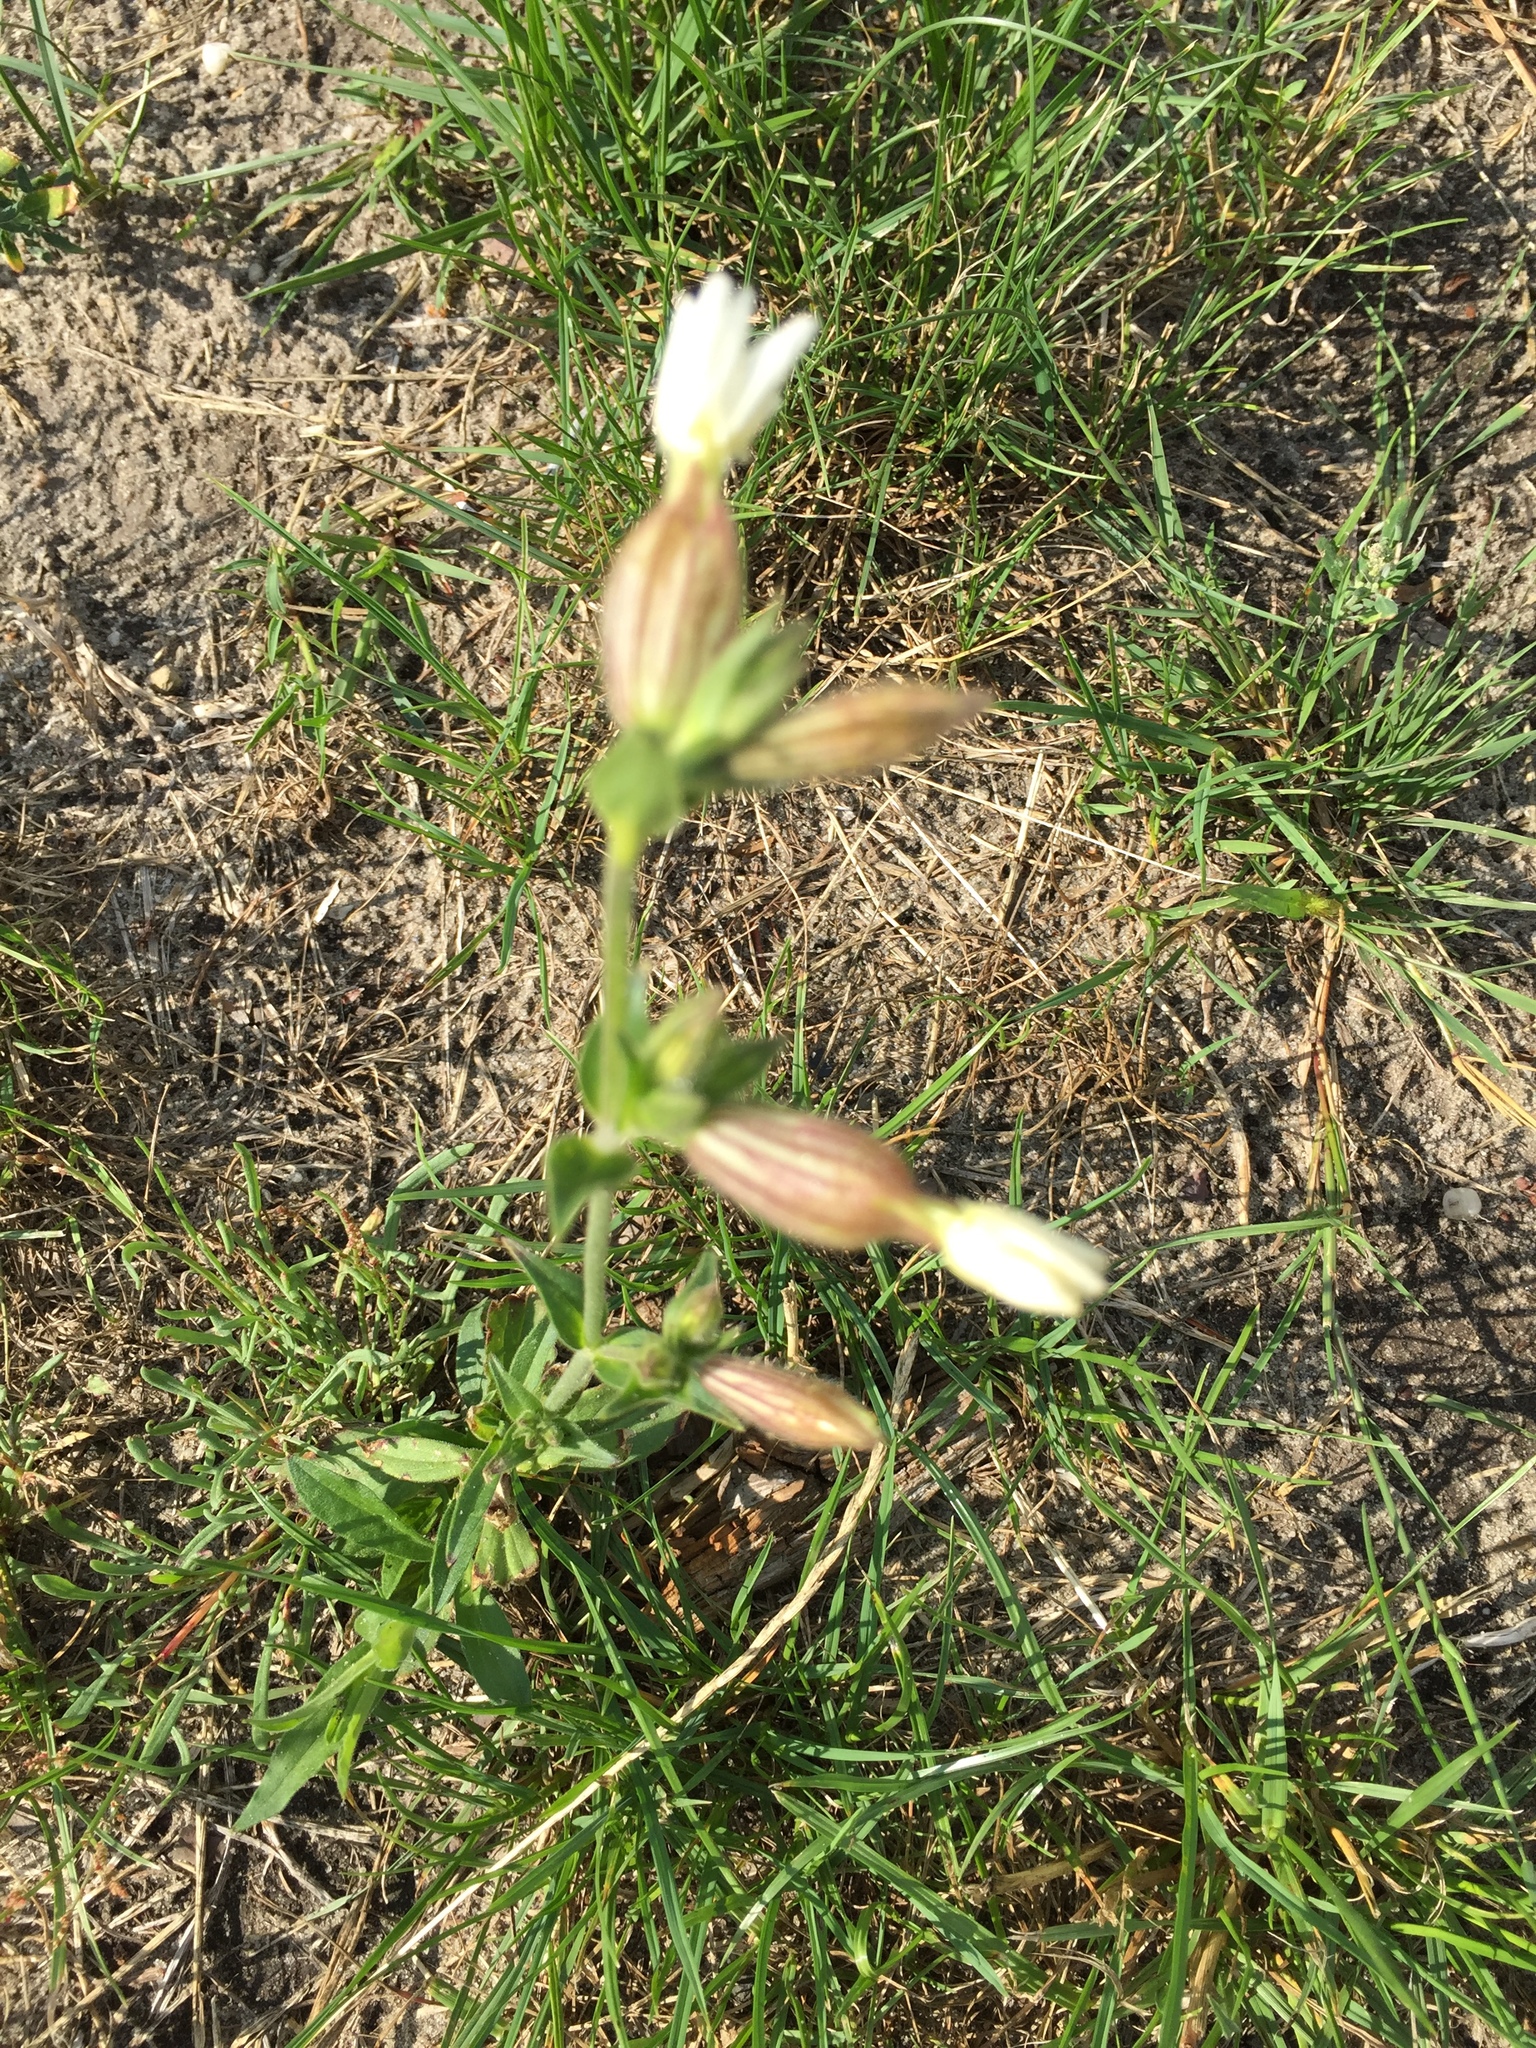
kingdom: Plantae
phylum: Tracheophyta
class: Magnoliopsida
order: Caryophyllales
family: Caryophyllaceae
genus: Silene
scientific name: Silene latifolia
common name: White campion
